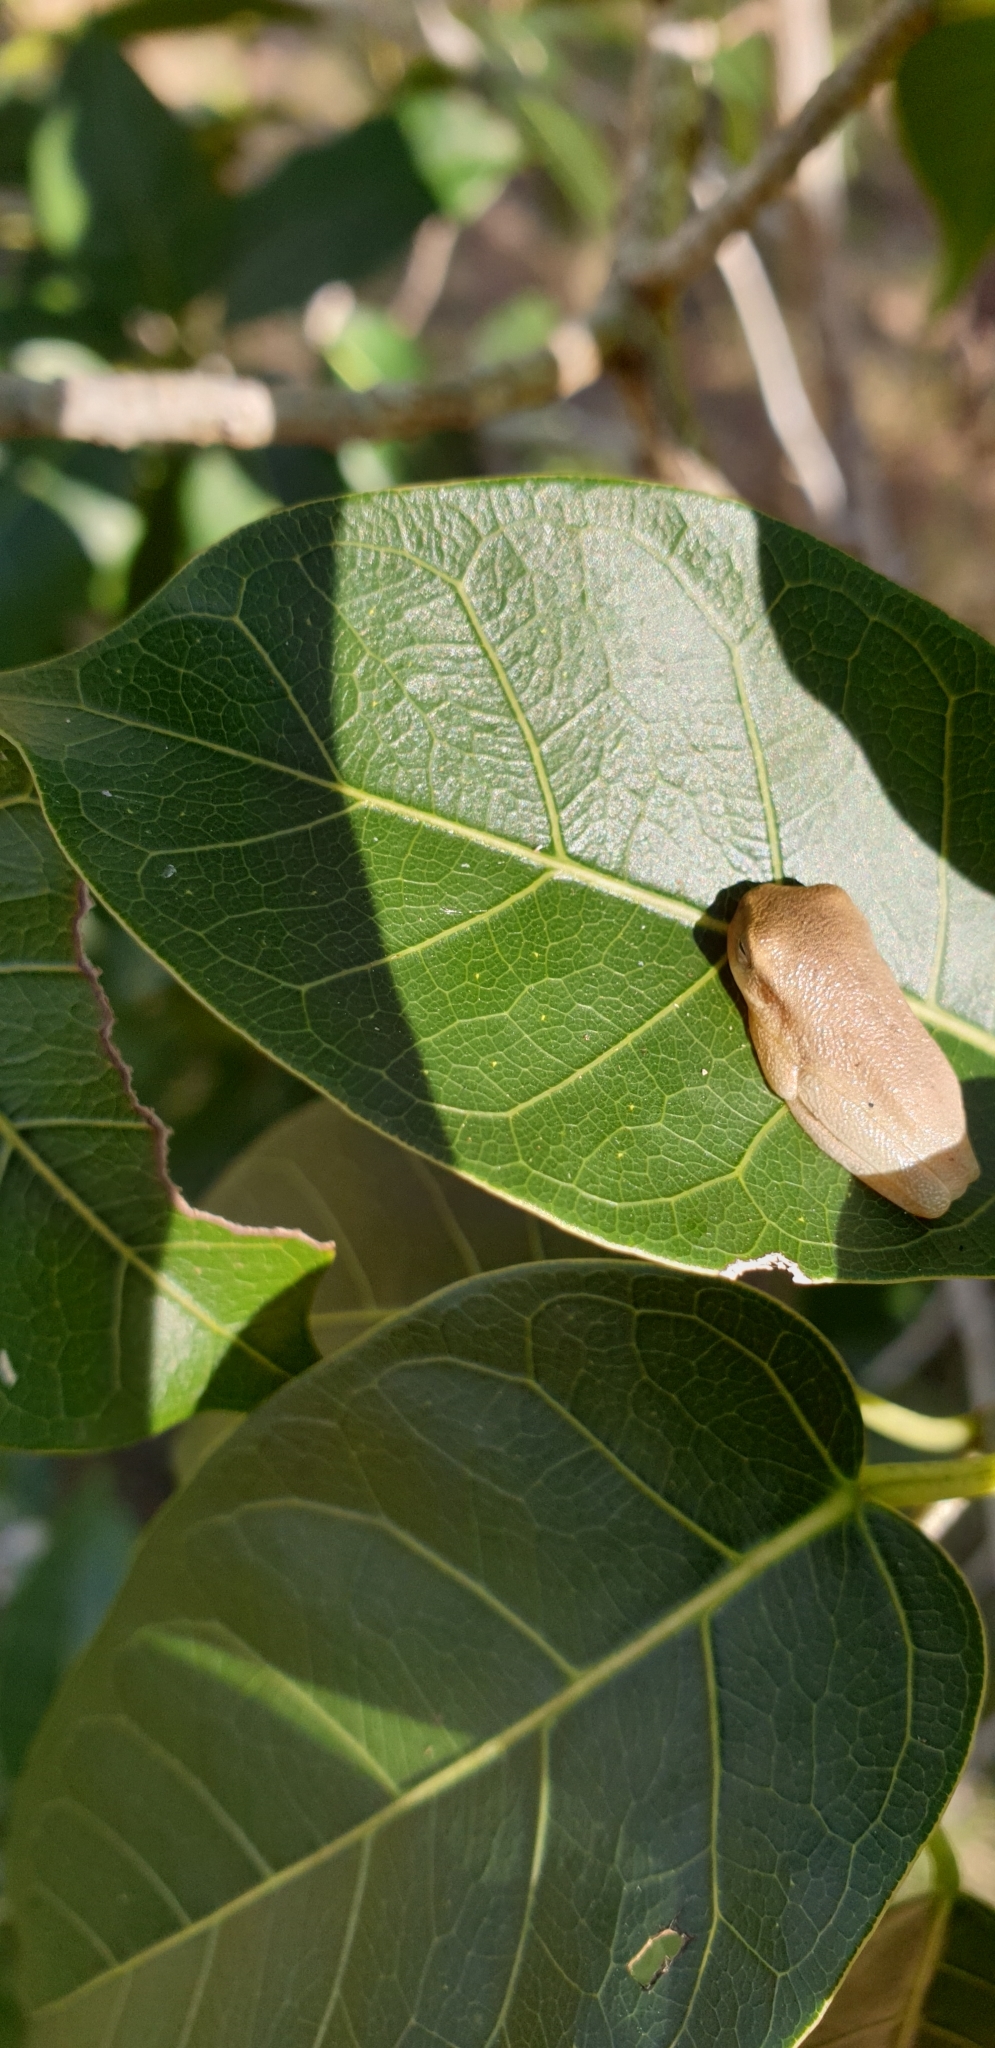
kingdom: Animalia
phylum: Chordata
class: Amphibia
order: Anura
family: Pelodryadidae
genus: Ranoidea
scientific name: Ranoidea gracilenta
